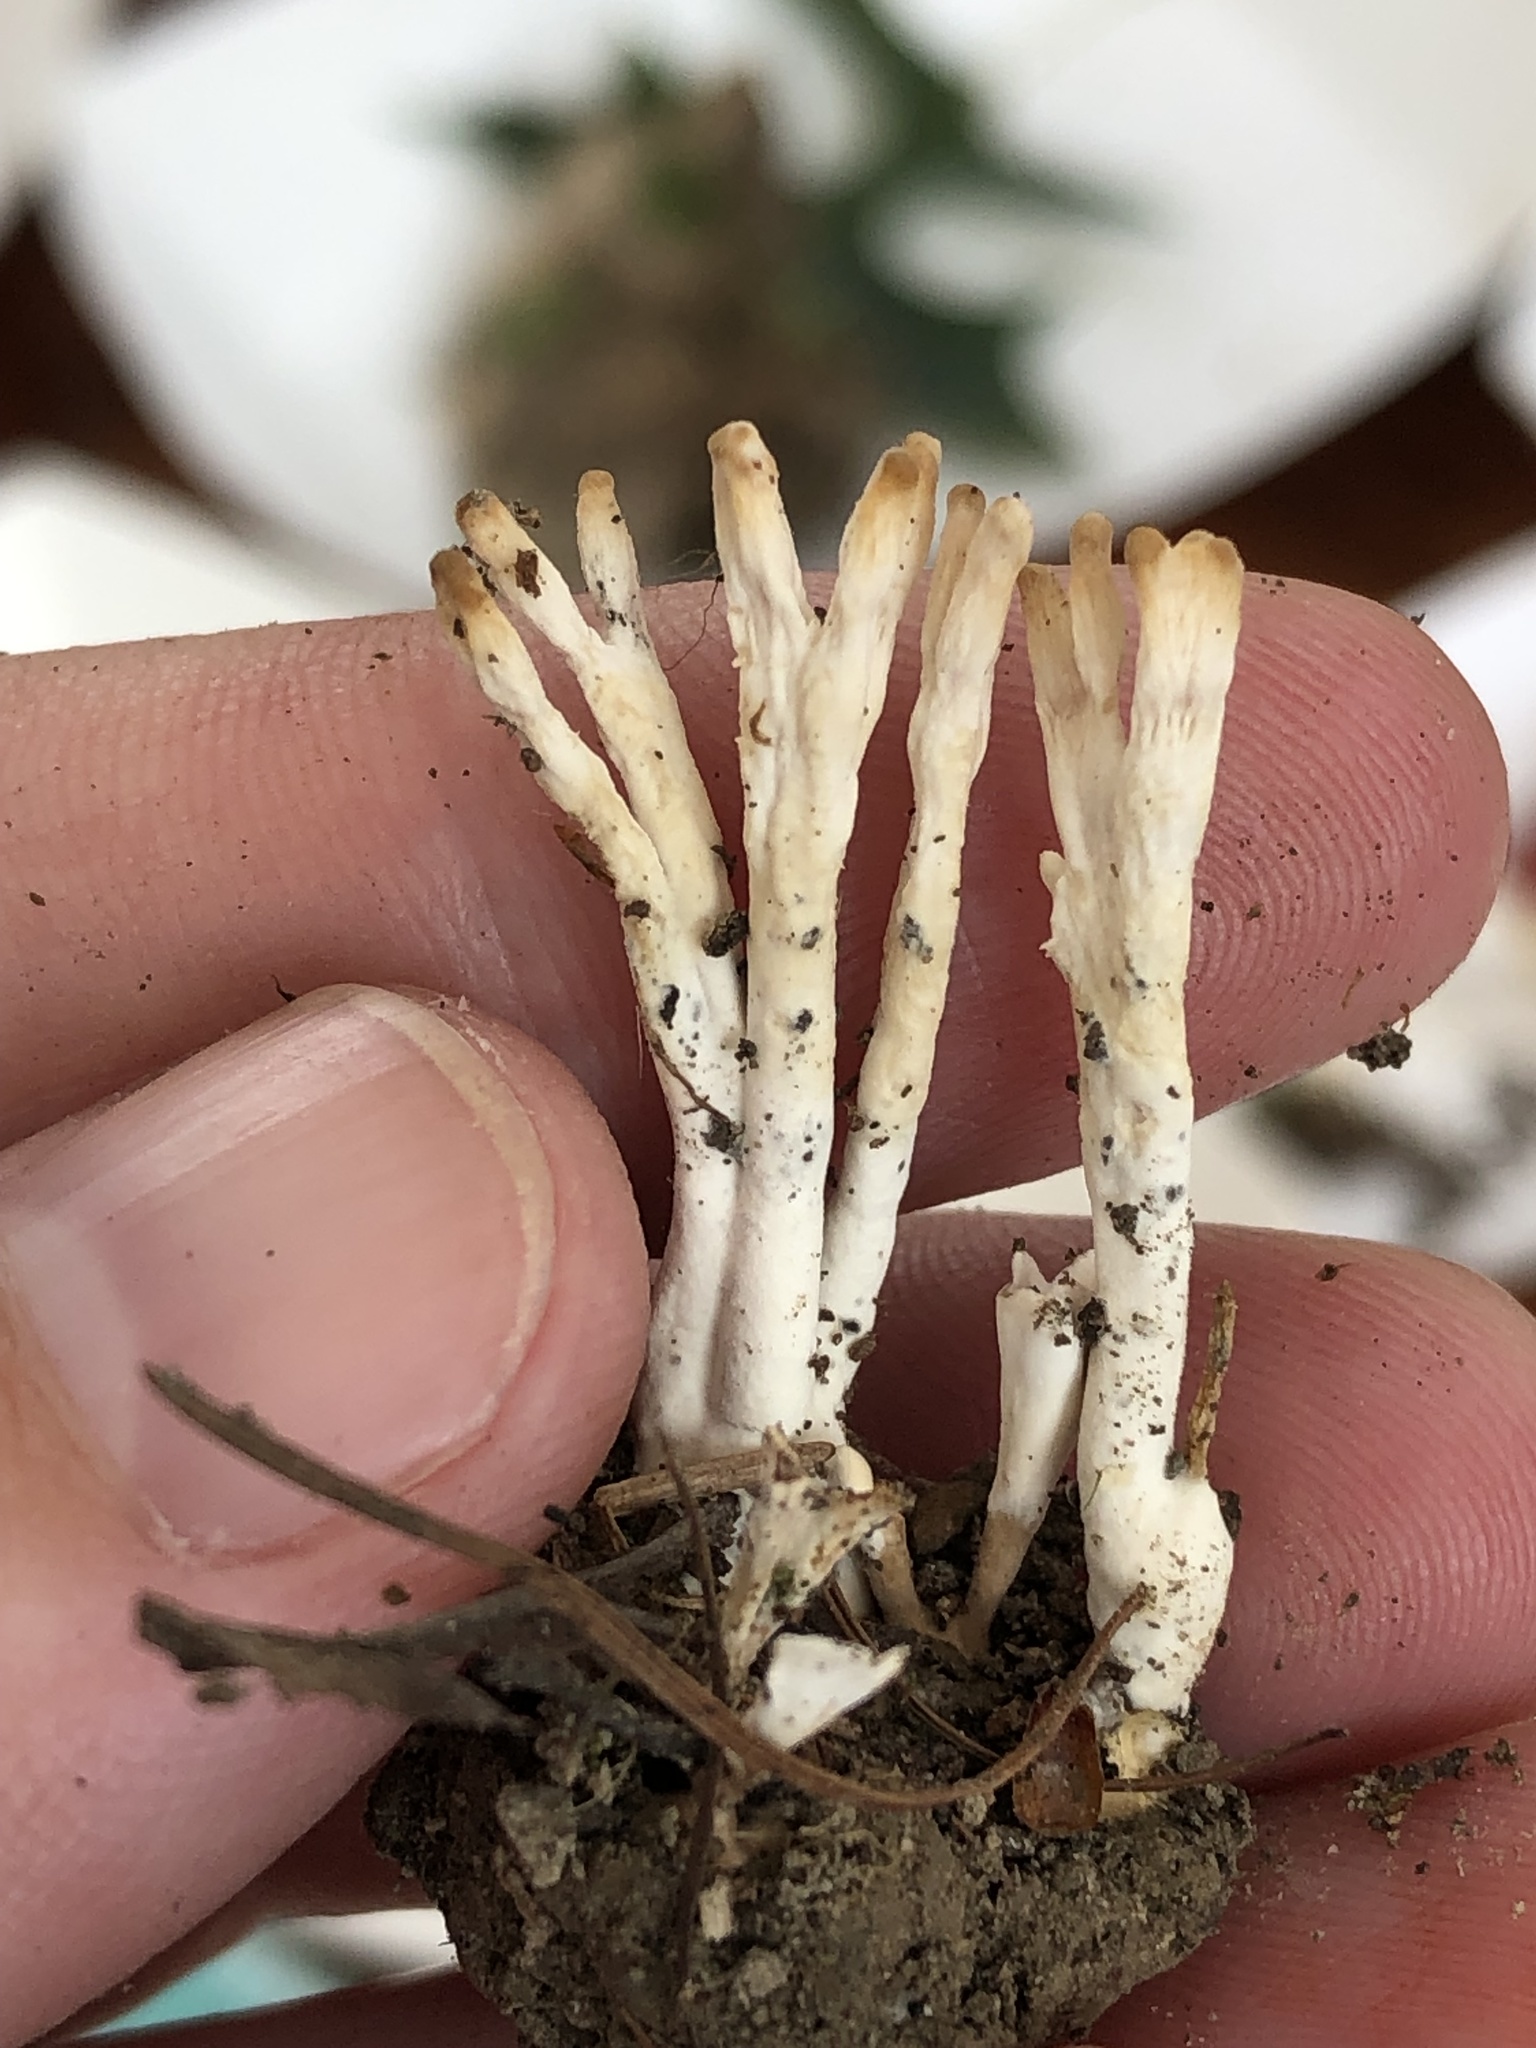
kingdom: Fungi
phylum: Basidiomycota
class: Agaricomycetes
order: Sebacinales
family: Sebacinaceae
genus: Sebacina
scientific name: Sebacina schweinitzii
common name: Jellied false coral fungus
